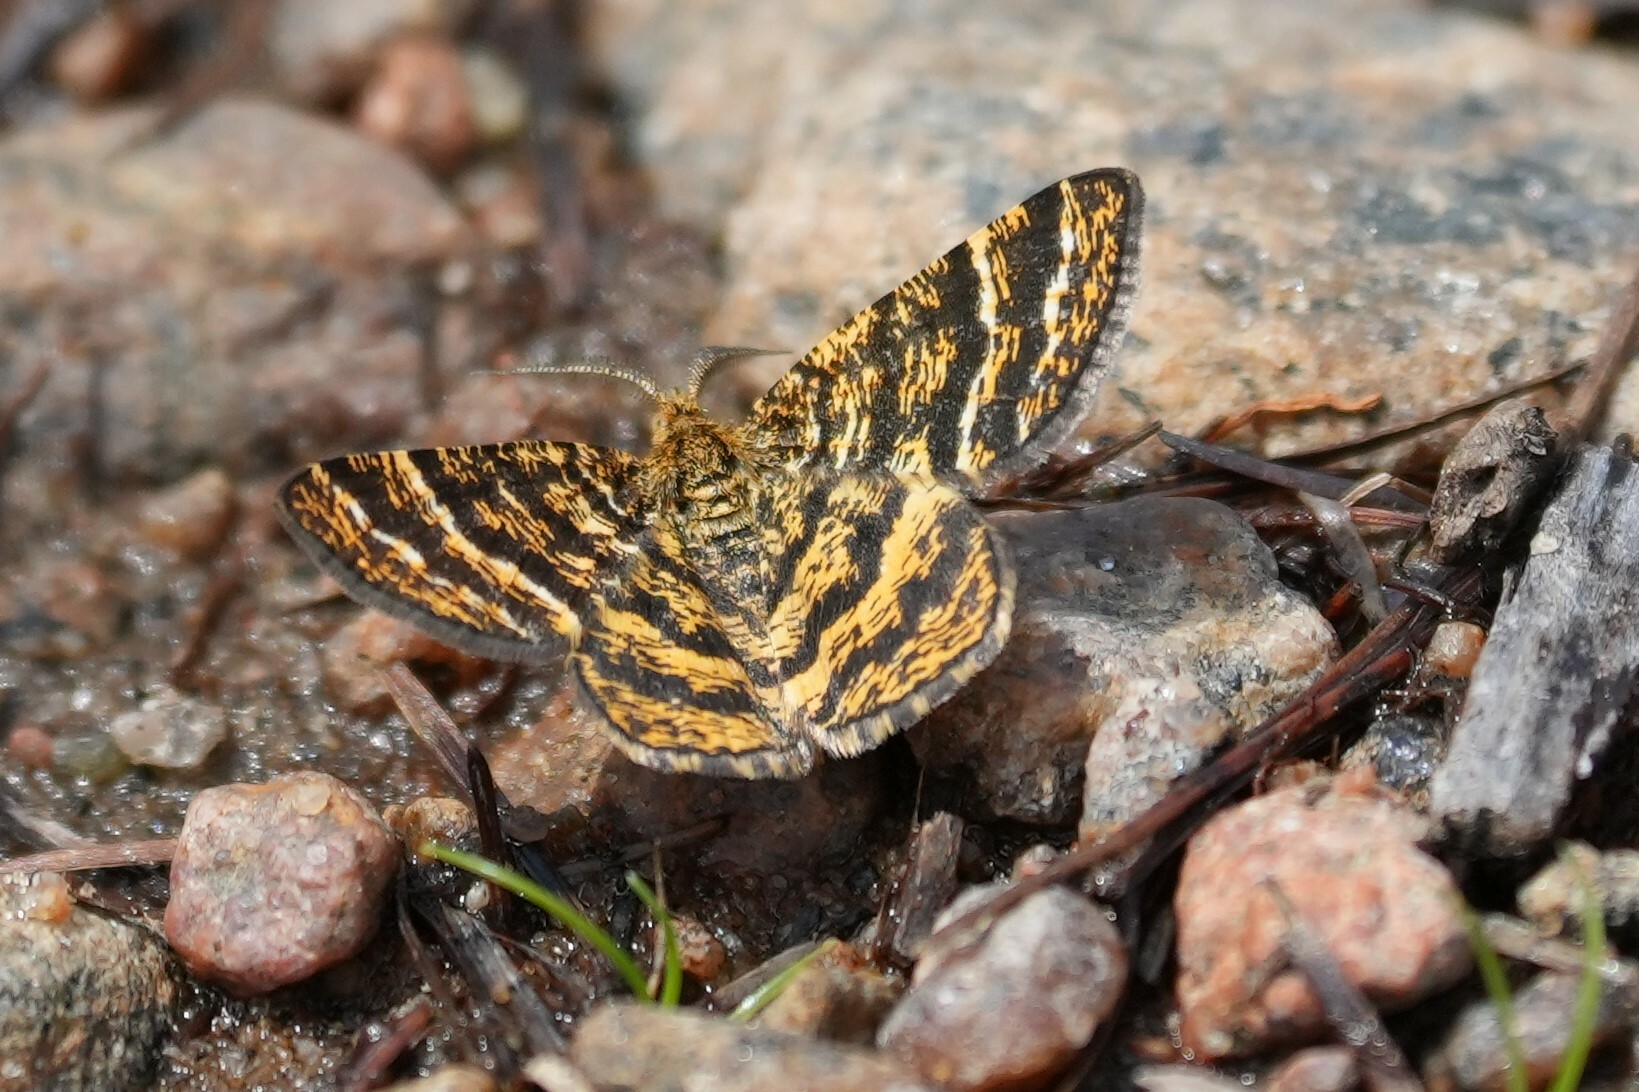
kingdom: Animalia
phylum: Arthropoda
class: Insecta
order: Lepidoptera
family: Geometridae
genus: Macaria
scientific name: Macaria truncataria
